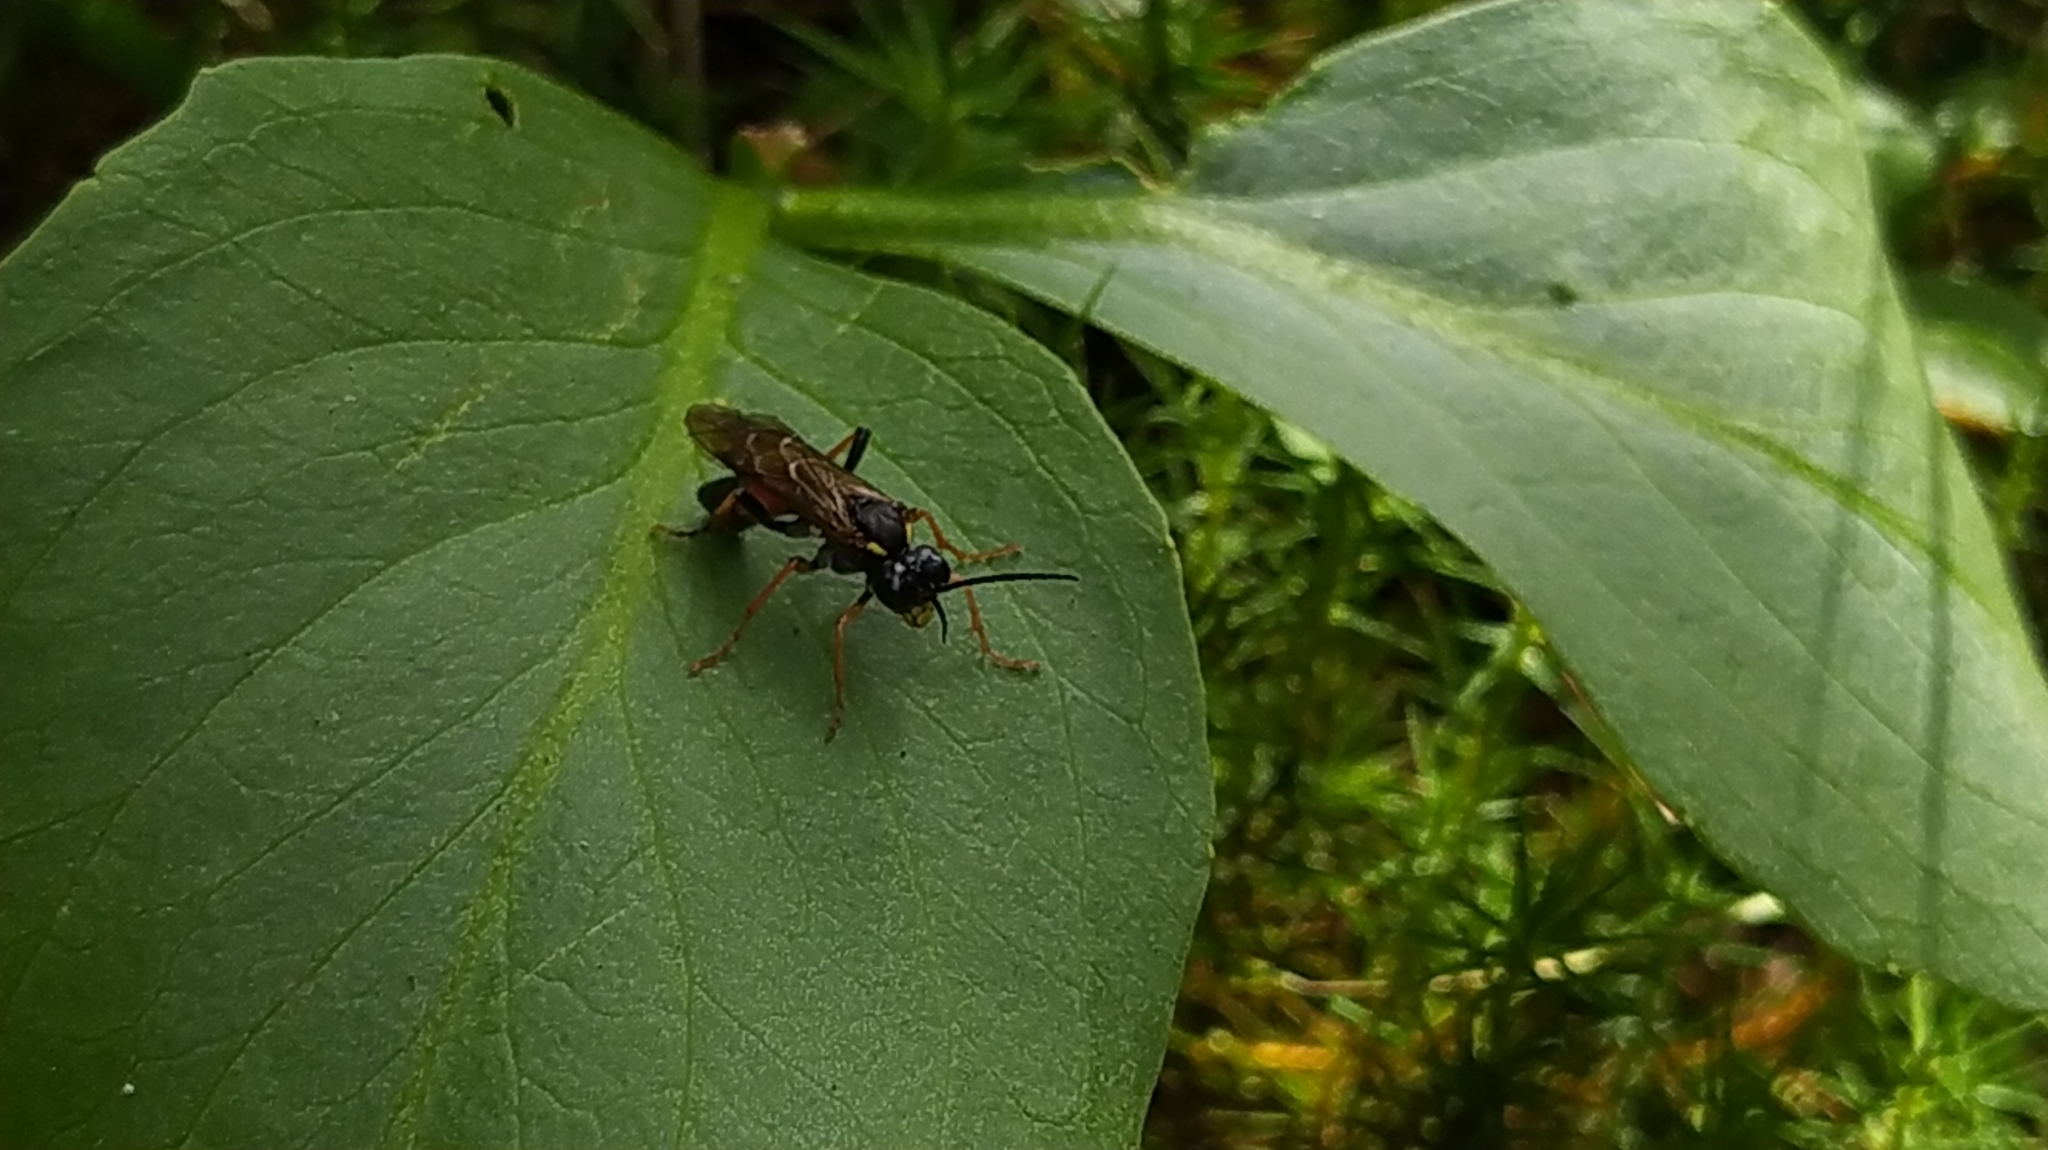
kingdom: Animalia
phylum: Arthropoda
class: Insecta
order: Hymenoptera
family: Tenthredinidae
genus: Tenthredo
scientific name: Tenthredo moniliata
